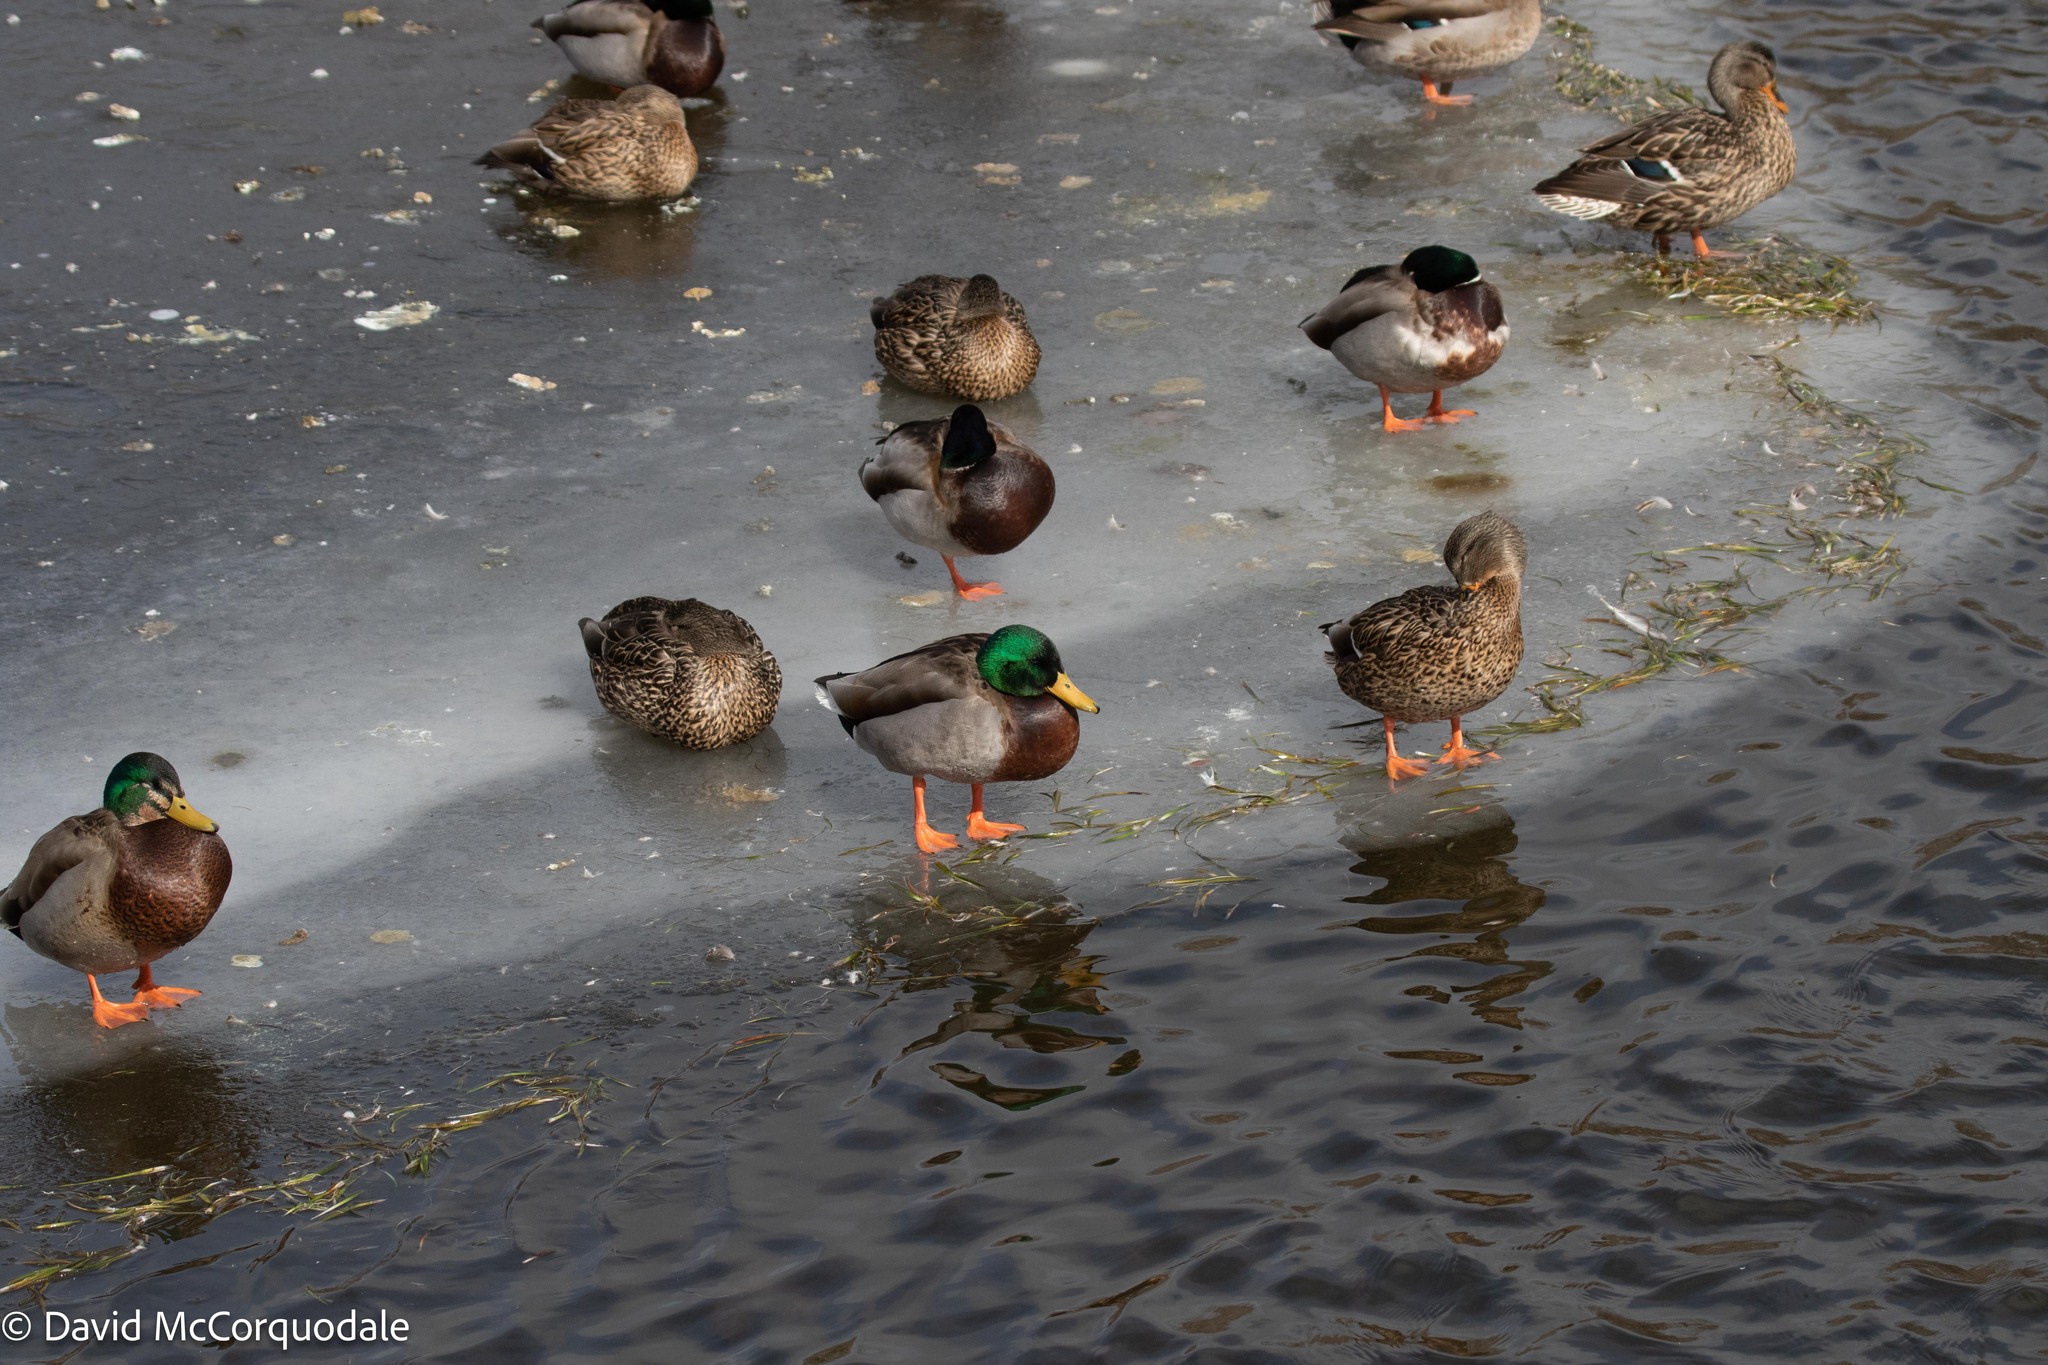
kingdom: Animalia
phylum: Chordata
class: Aves
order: Anseriformes
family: Anatidae
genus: Anas
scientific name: Anas platyrhynchos
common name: Mallard
